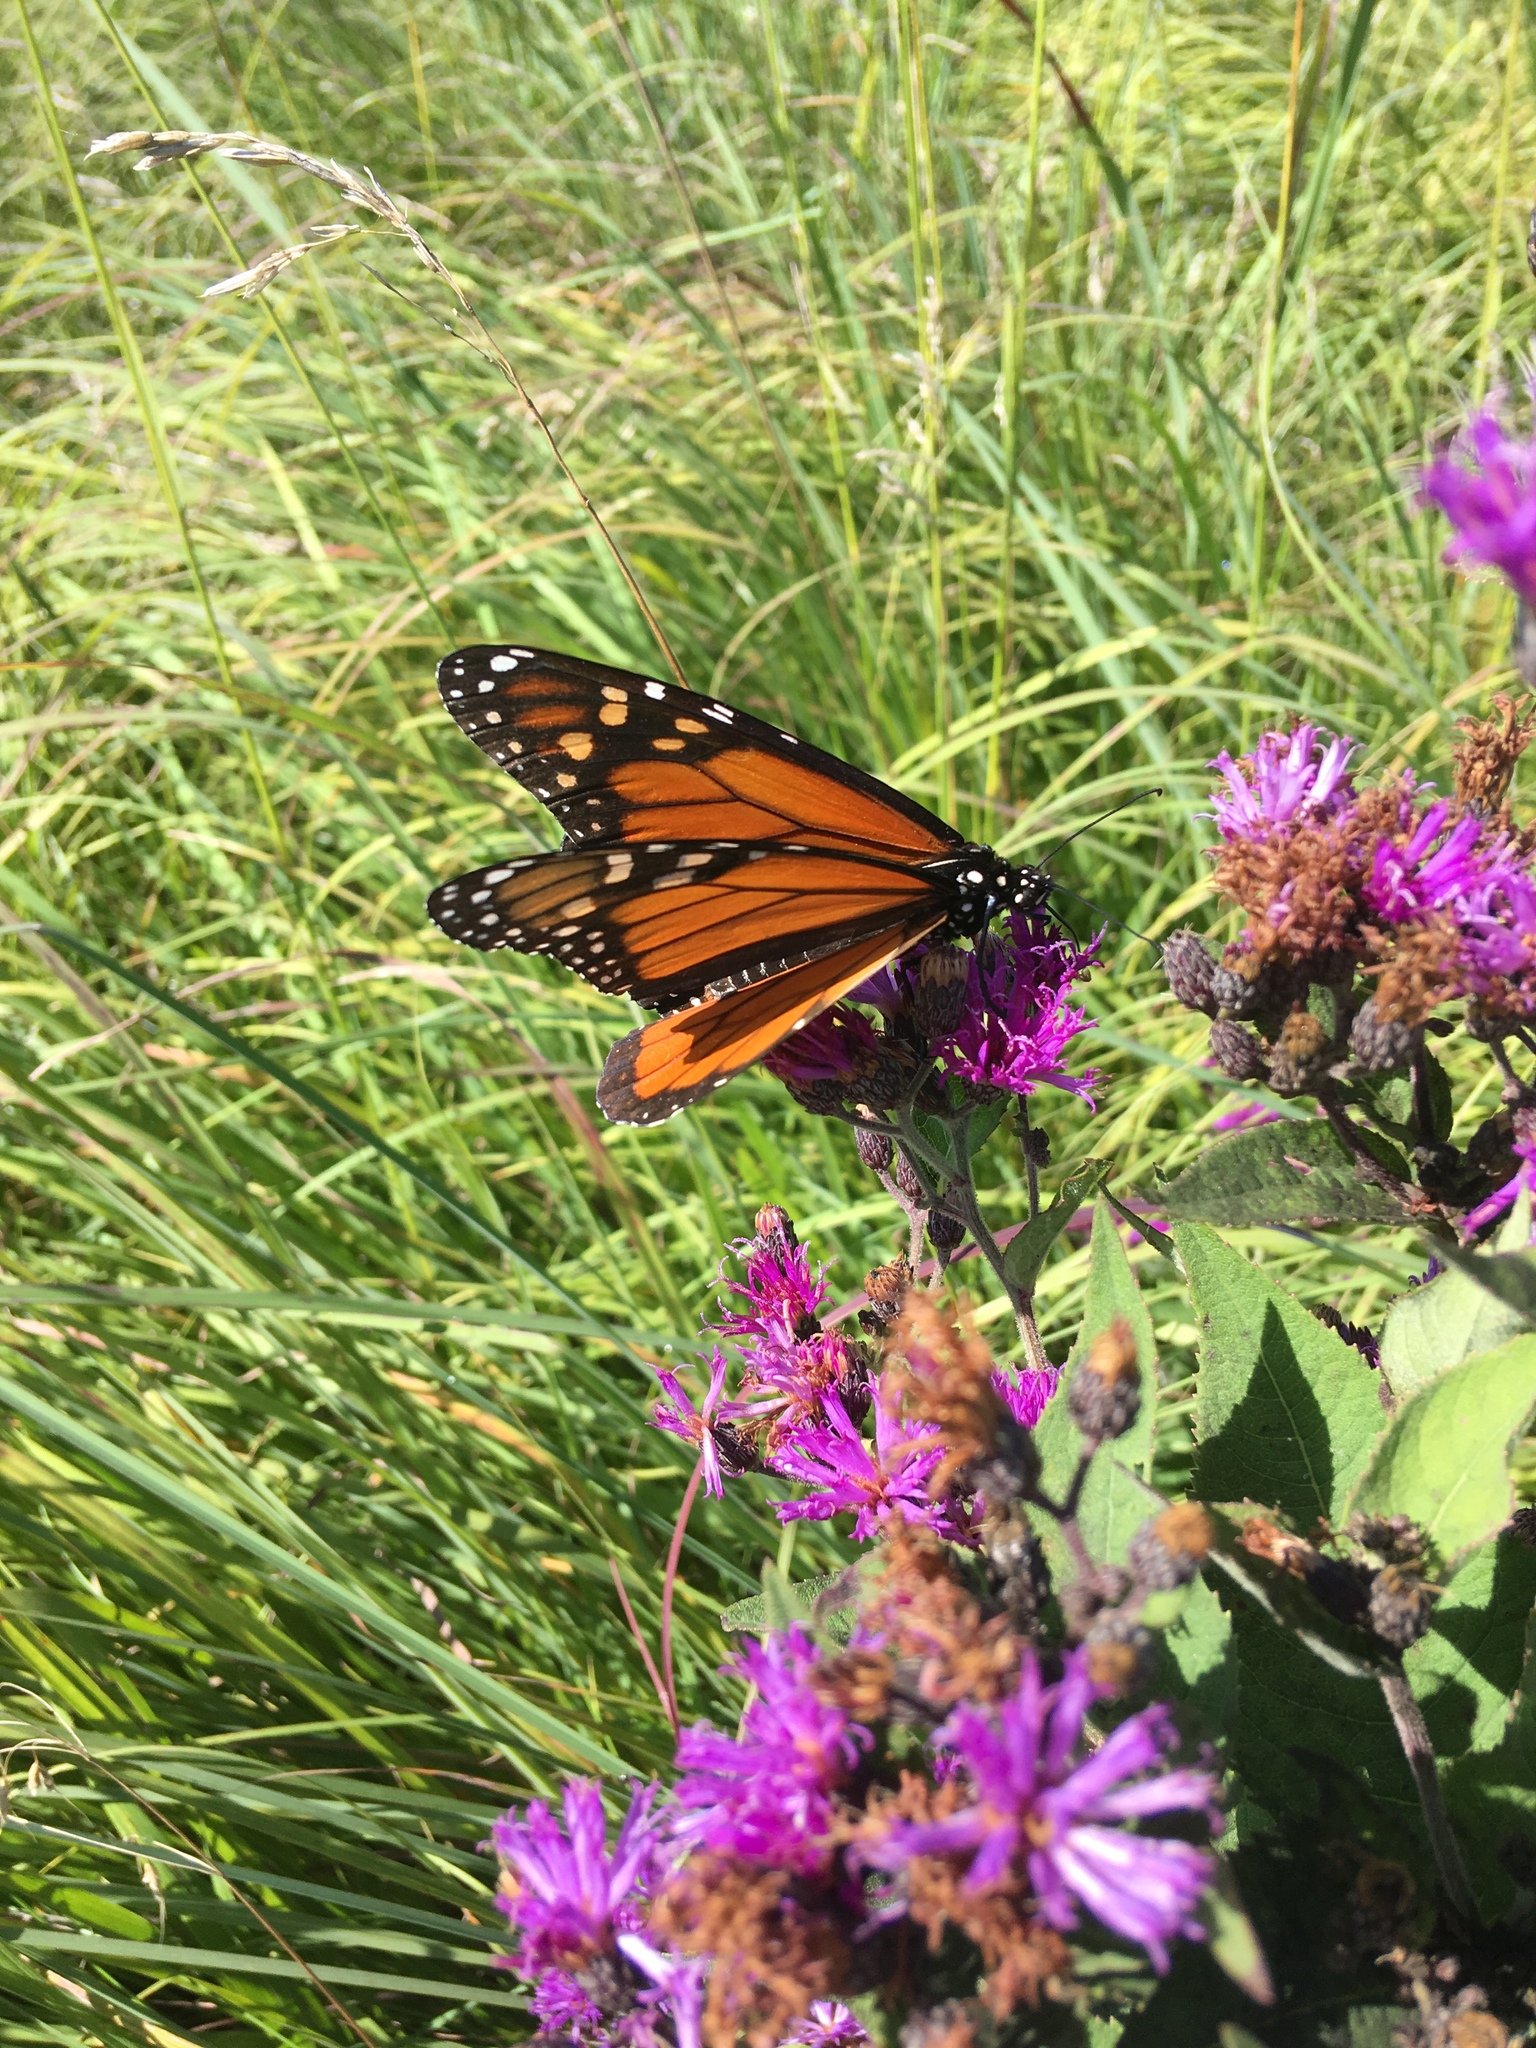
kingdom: Animalia
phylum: Arthropoda
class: Insecta
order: Lepidoptera
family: Nymphalidae
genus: Danaus
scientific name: Danaus plexippus
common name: Monarch
